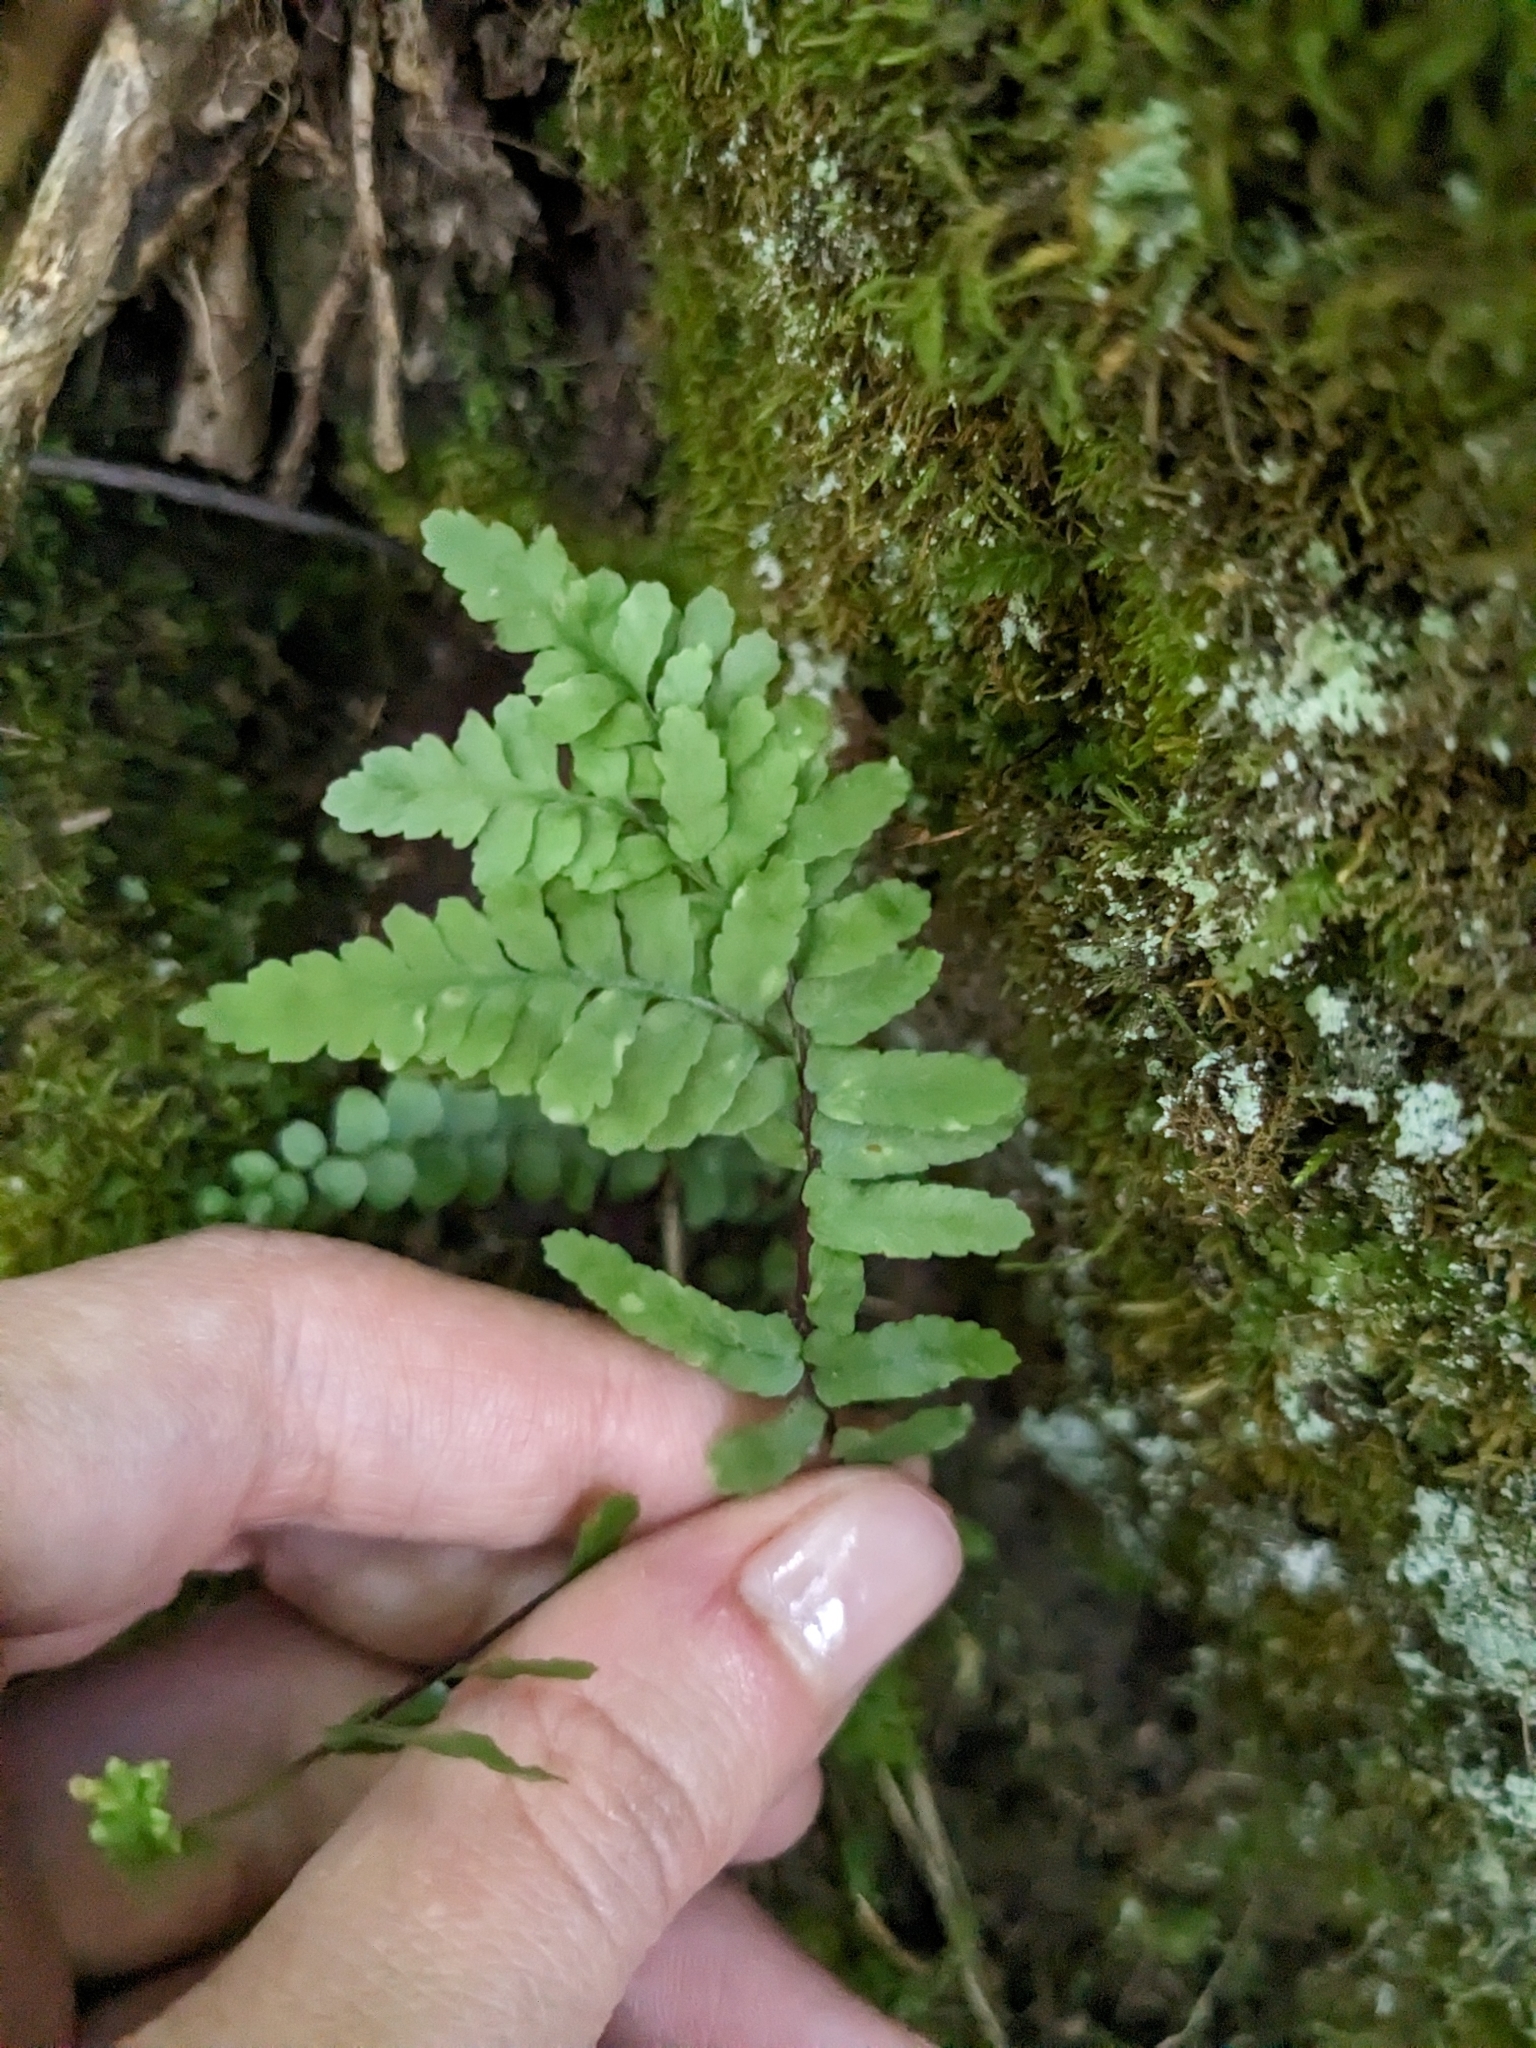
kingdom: Plantae
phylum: Tracheophyta
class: Polypodiopsida
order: Polypodiales
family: Aspleniaceae
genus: Asplenium
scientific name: Asplenium platyneuron
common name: Ebony spleenwort
